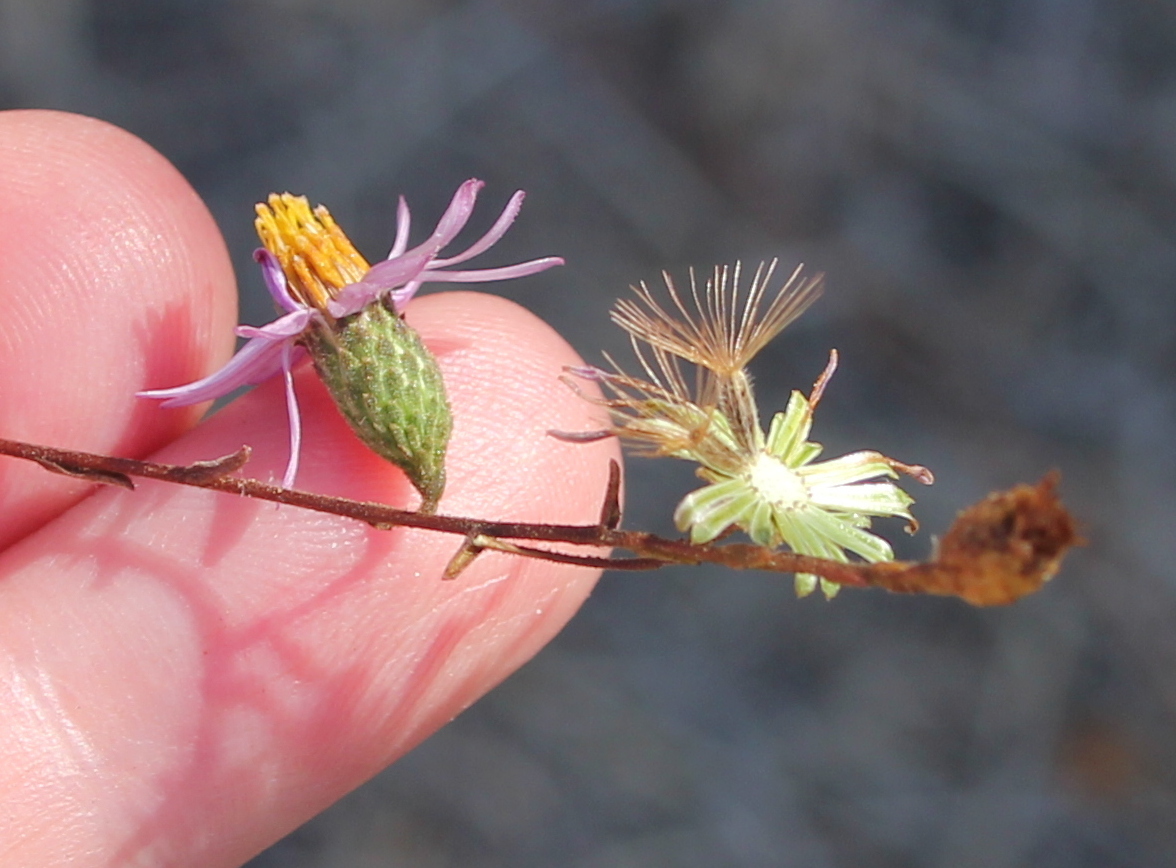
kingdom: Plantae
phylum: Tracheophyta
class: Magnoliopsida
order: Asterales
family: Asteraceae
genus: Corethrogyne
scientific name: Corethrogyne filaginifolia
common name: Sand-aster
